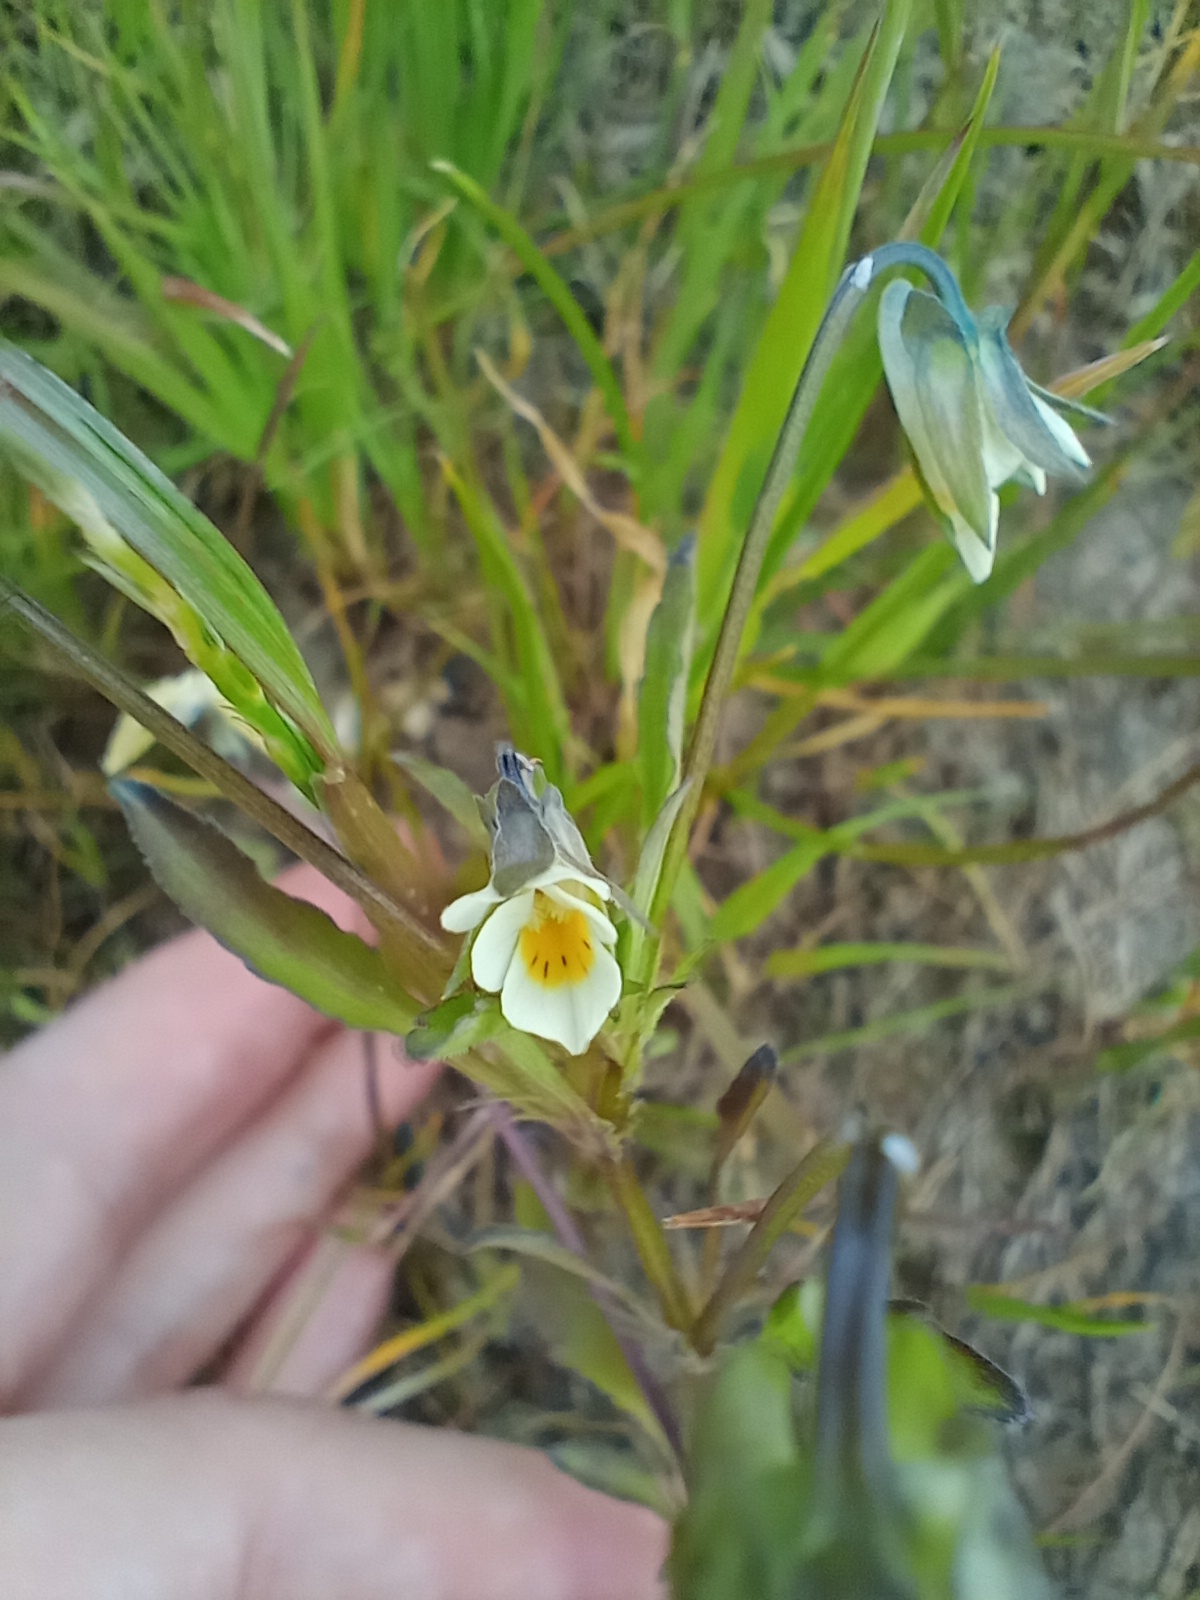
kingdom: Plantae
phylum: Tracheophyta
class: Magnoliopsida
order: Malpighiales
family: Violaceae
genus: Viola
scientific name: Viola arvensis
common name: Field pansy
